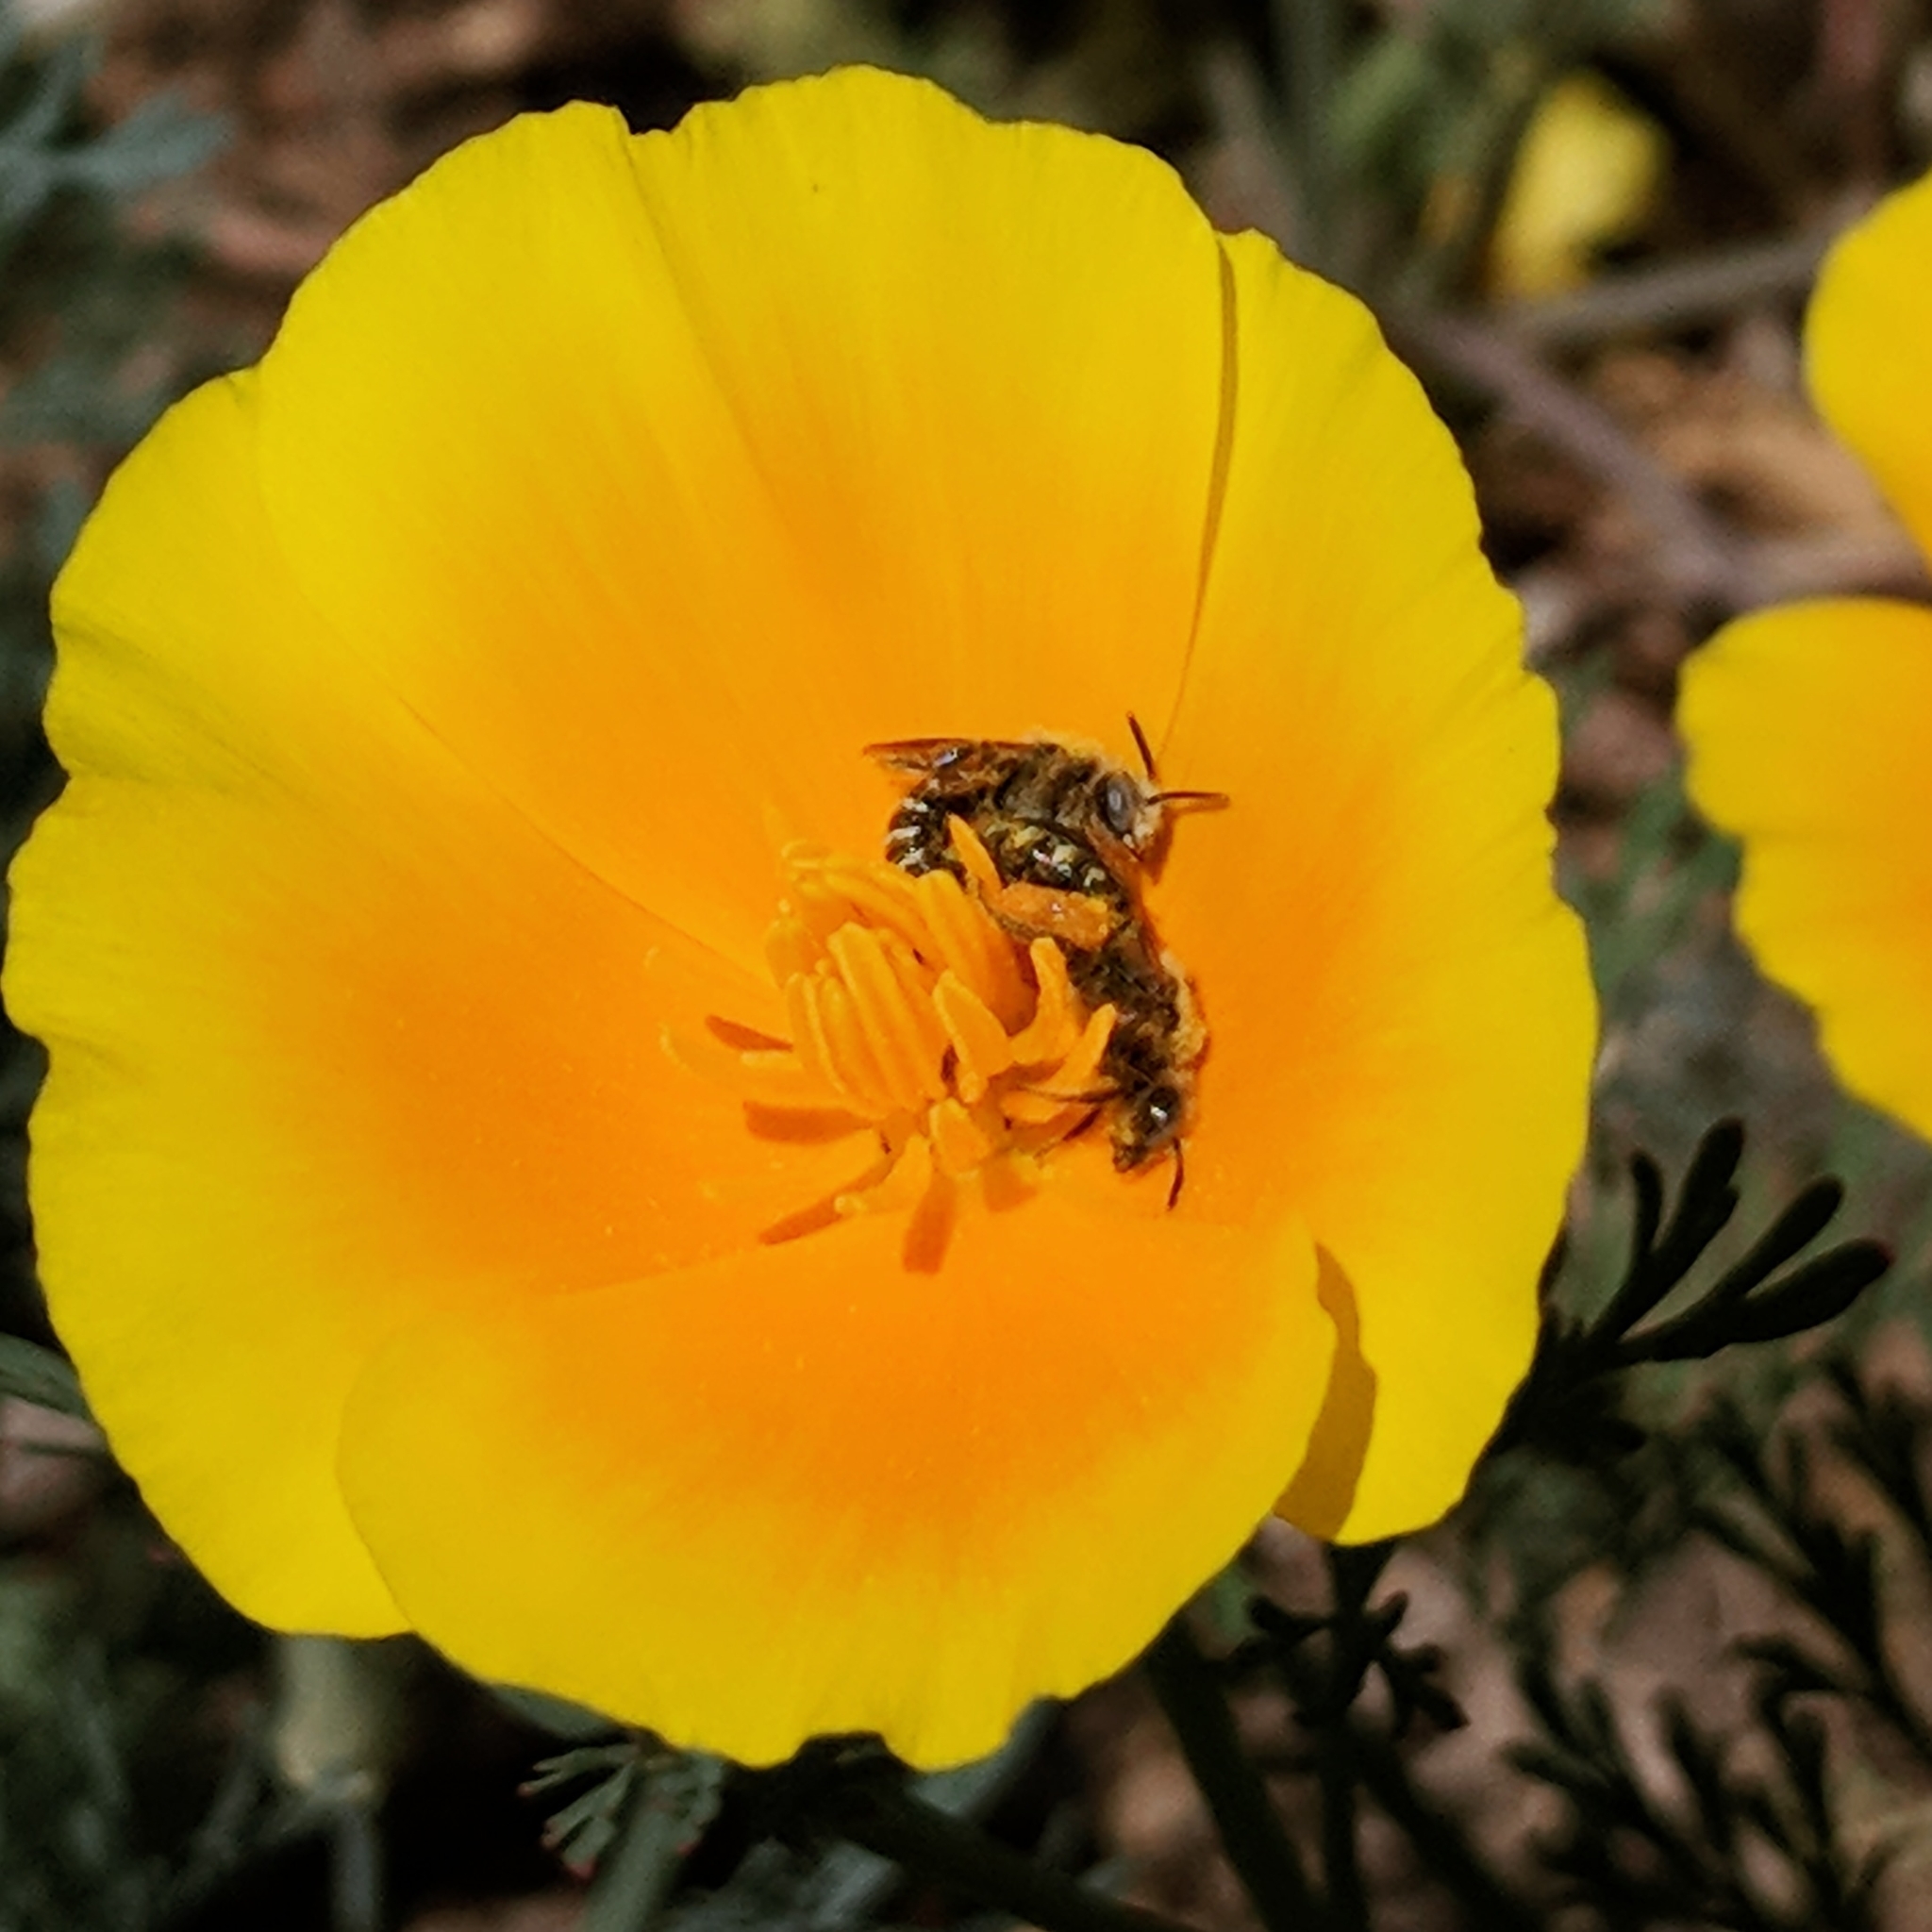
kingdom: Animalia
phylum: Arthropoda
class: Insecta
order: Hymenoptera
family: Andrenidae
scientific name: Andrenidae
